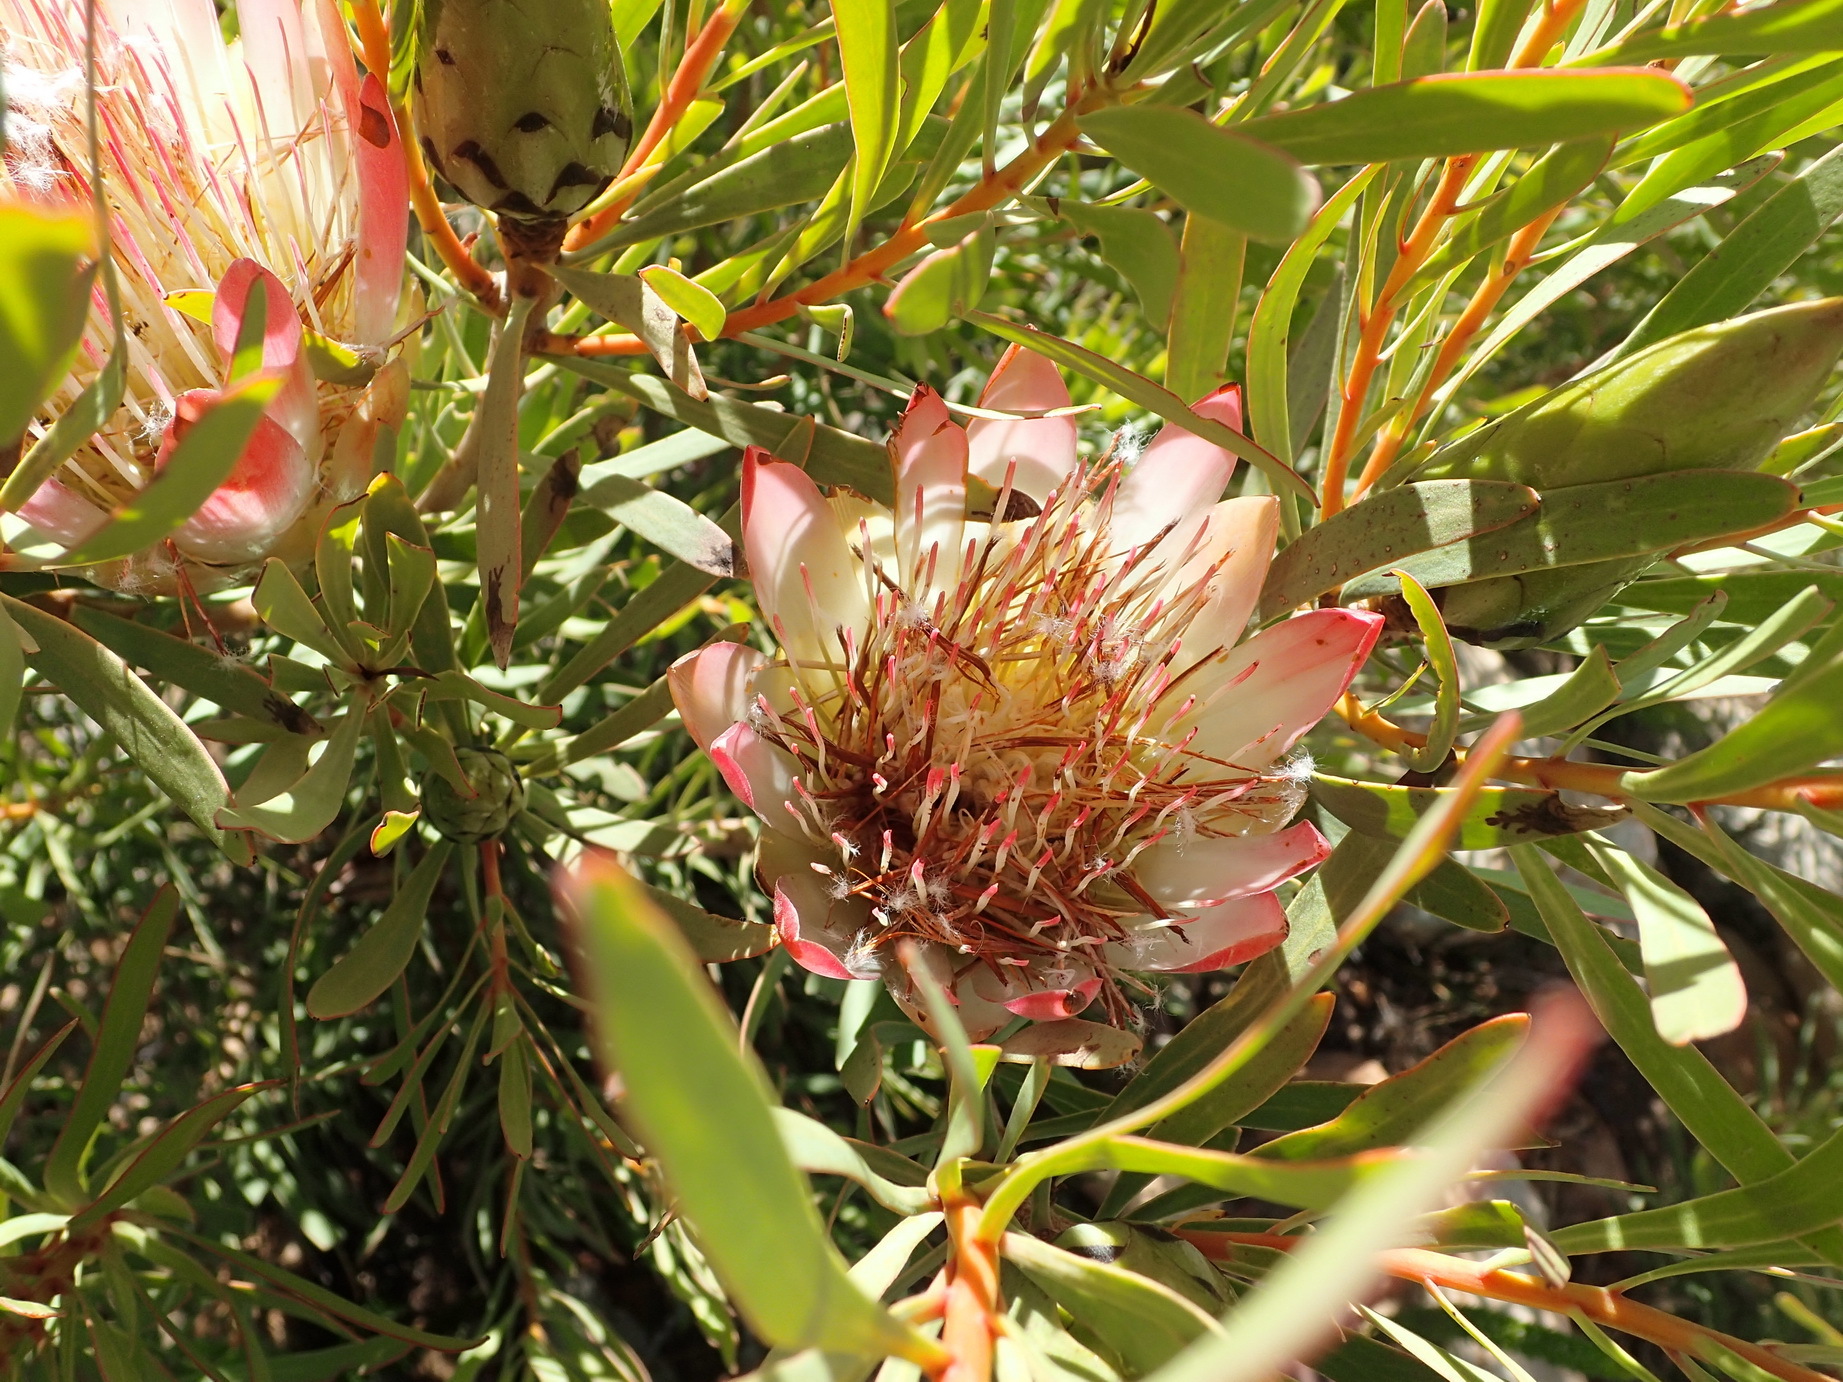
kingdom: Plantae
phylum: Tracheophyta
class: Magnoliopsida
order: Proteales
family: Proteaceae
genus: Protea
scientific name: Protea repens
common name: Sugarbush
